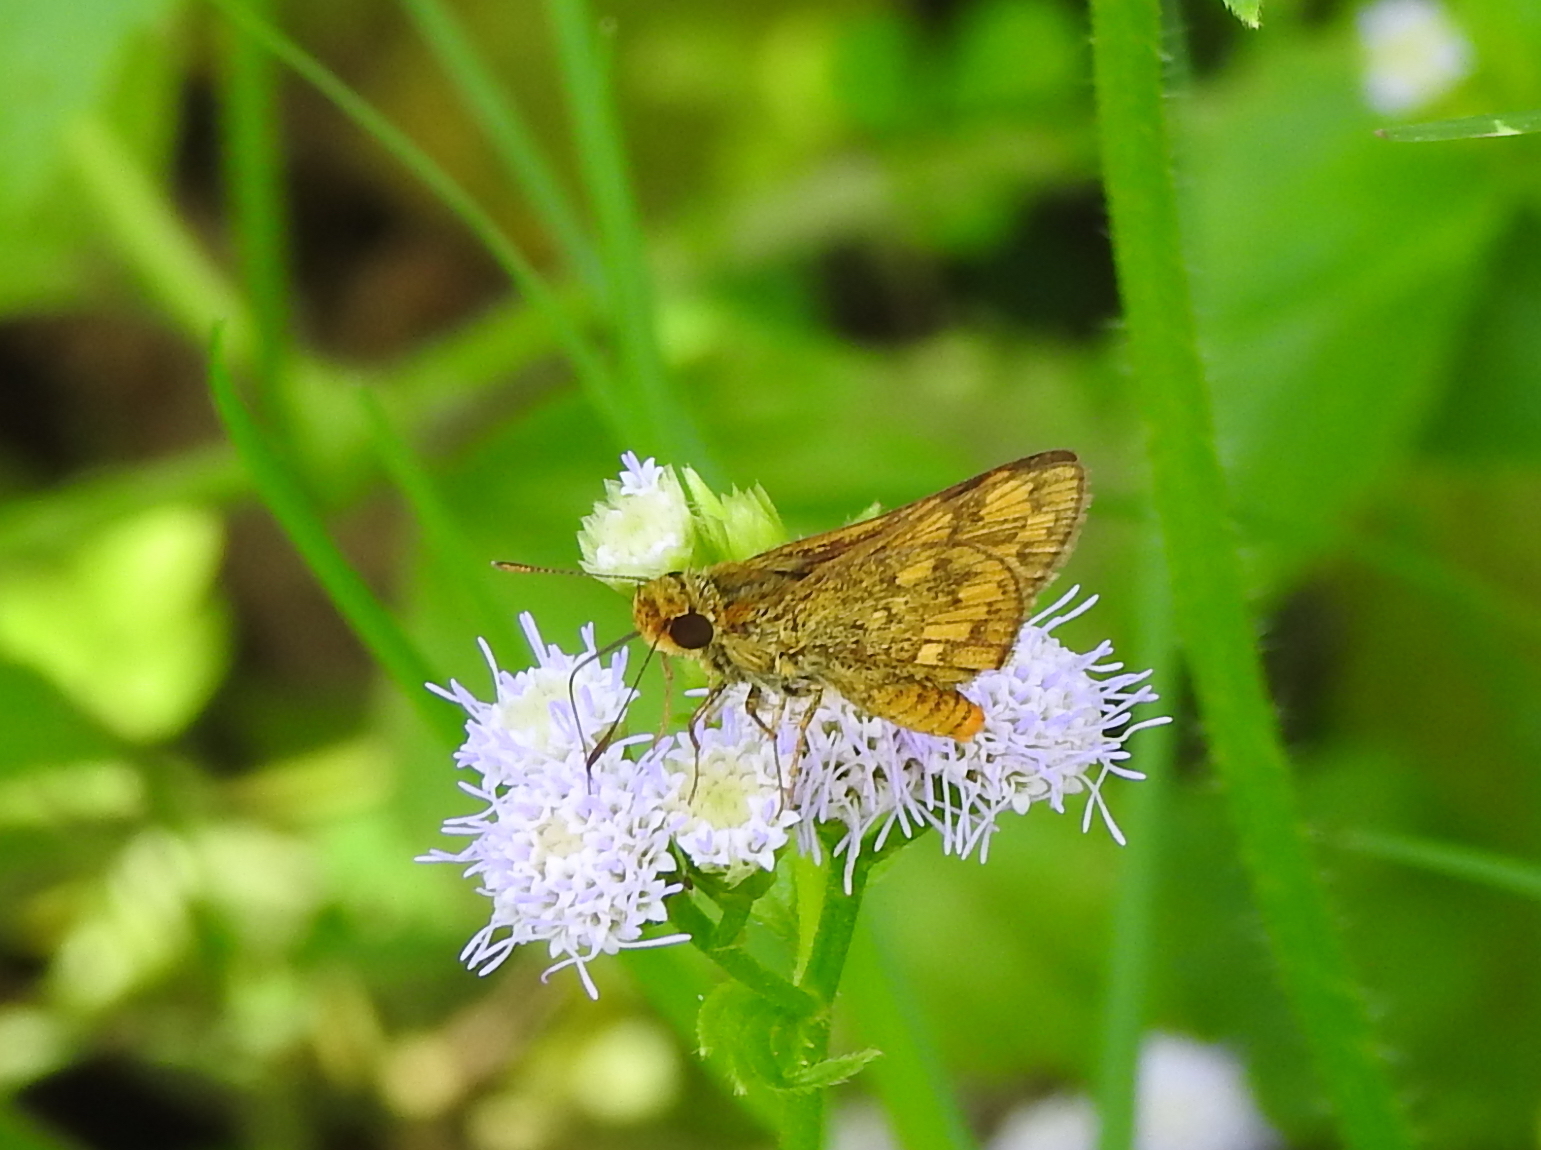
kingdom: Animalia
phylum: Arthropoda
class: Insecta
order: Lepidoptera
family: Hesperiidae
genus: Potanthus
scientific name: Potanthus omaha
